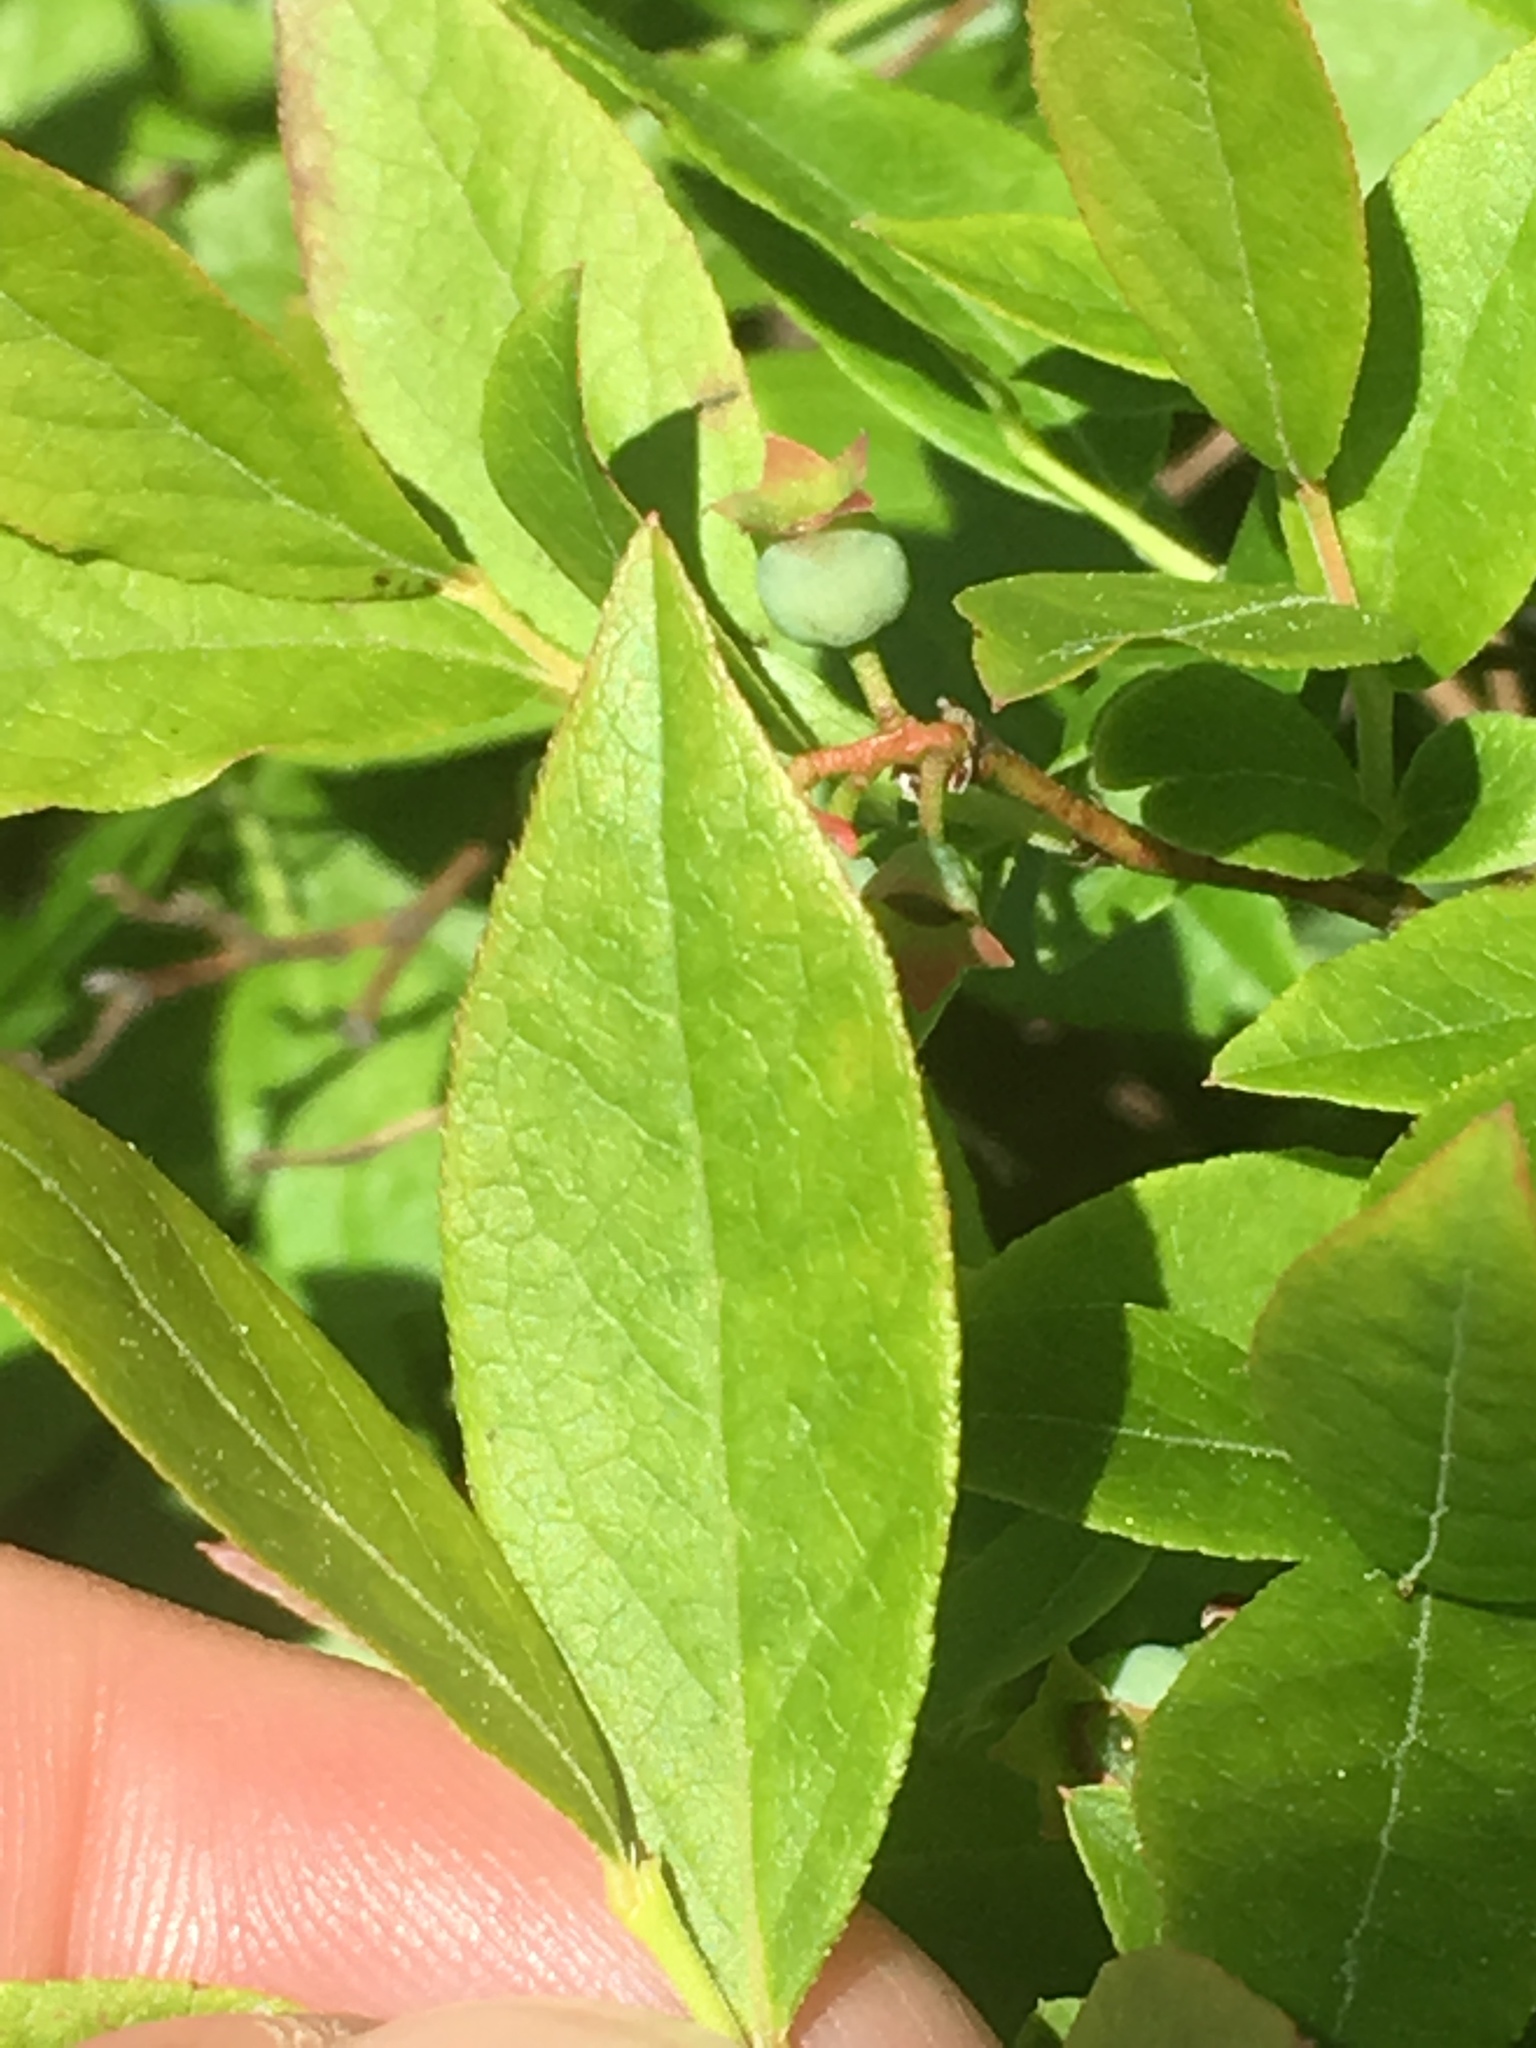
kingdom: Plantae
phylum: Tracheophyta
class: Magnoliopsida
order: Ericales
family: Ericaceae
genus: Vaccinium
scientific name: Vaccinium angustifolium
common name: Early lowbush blueberry
